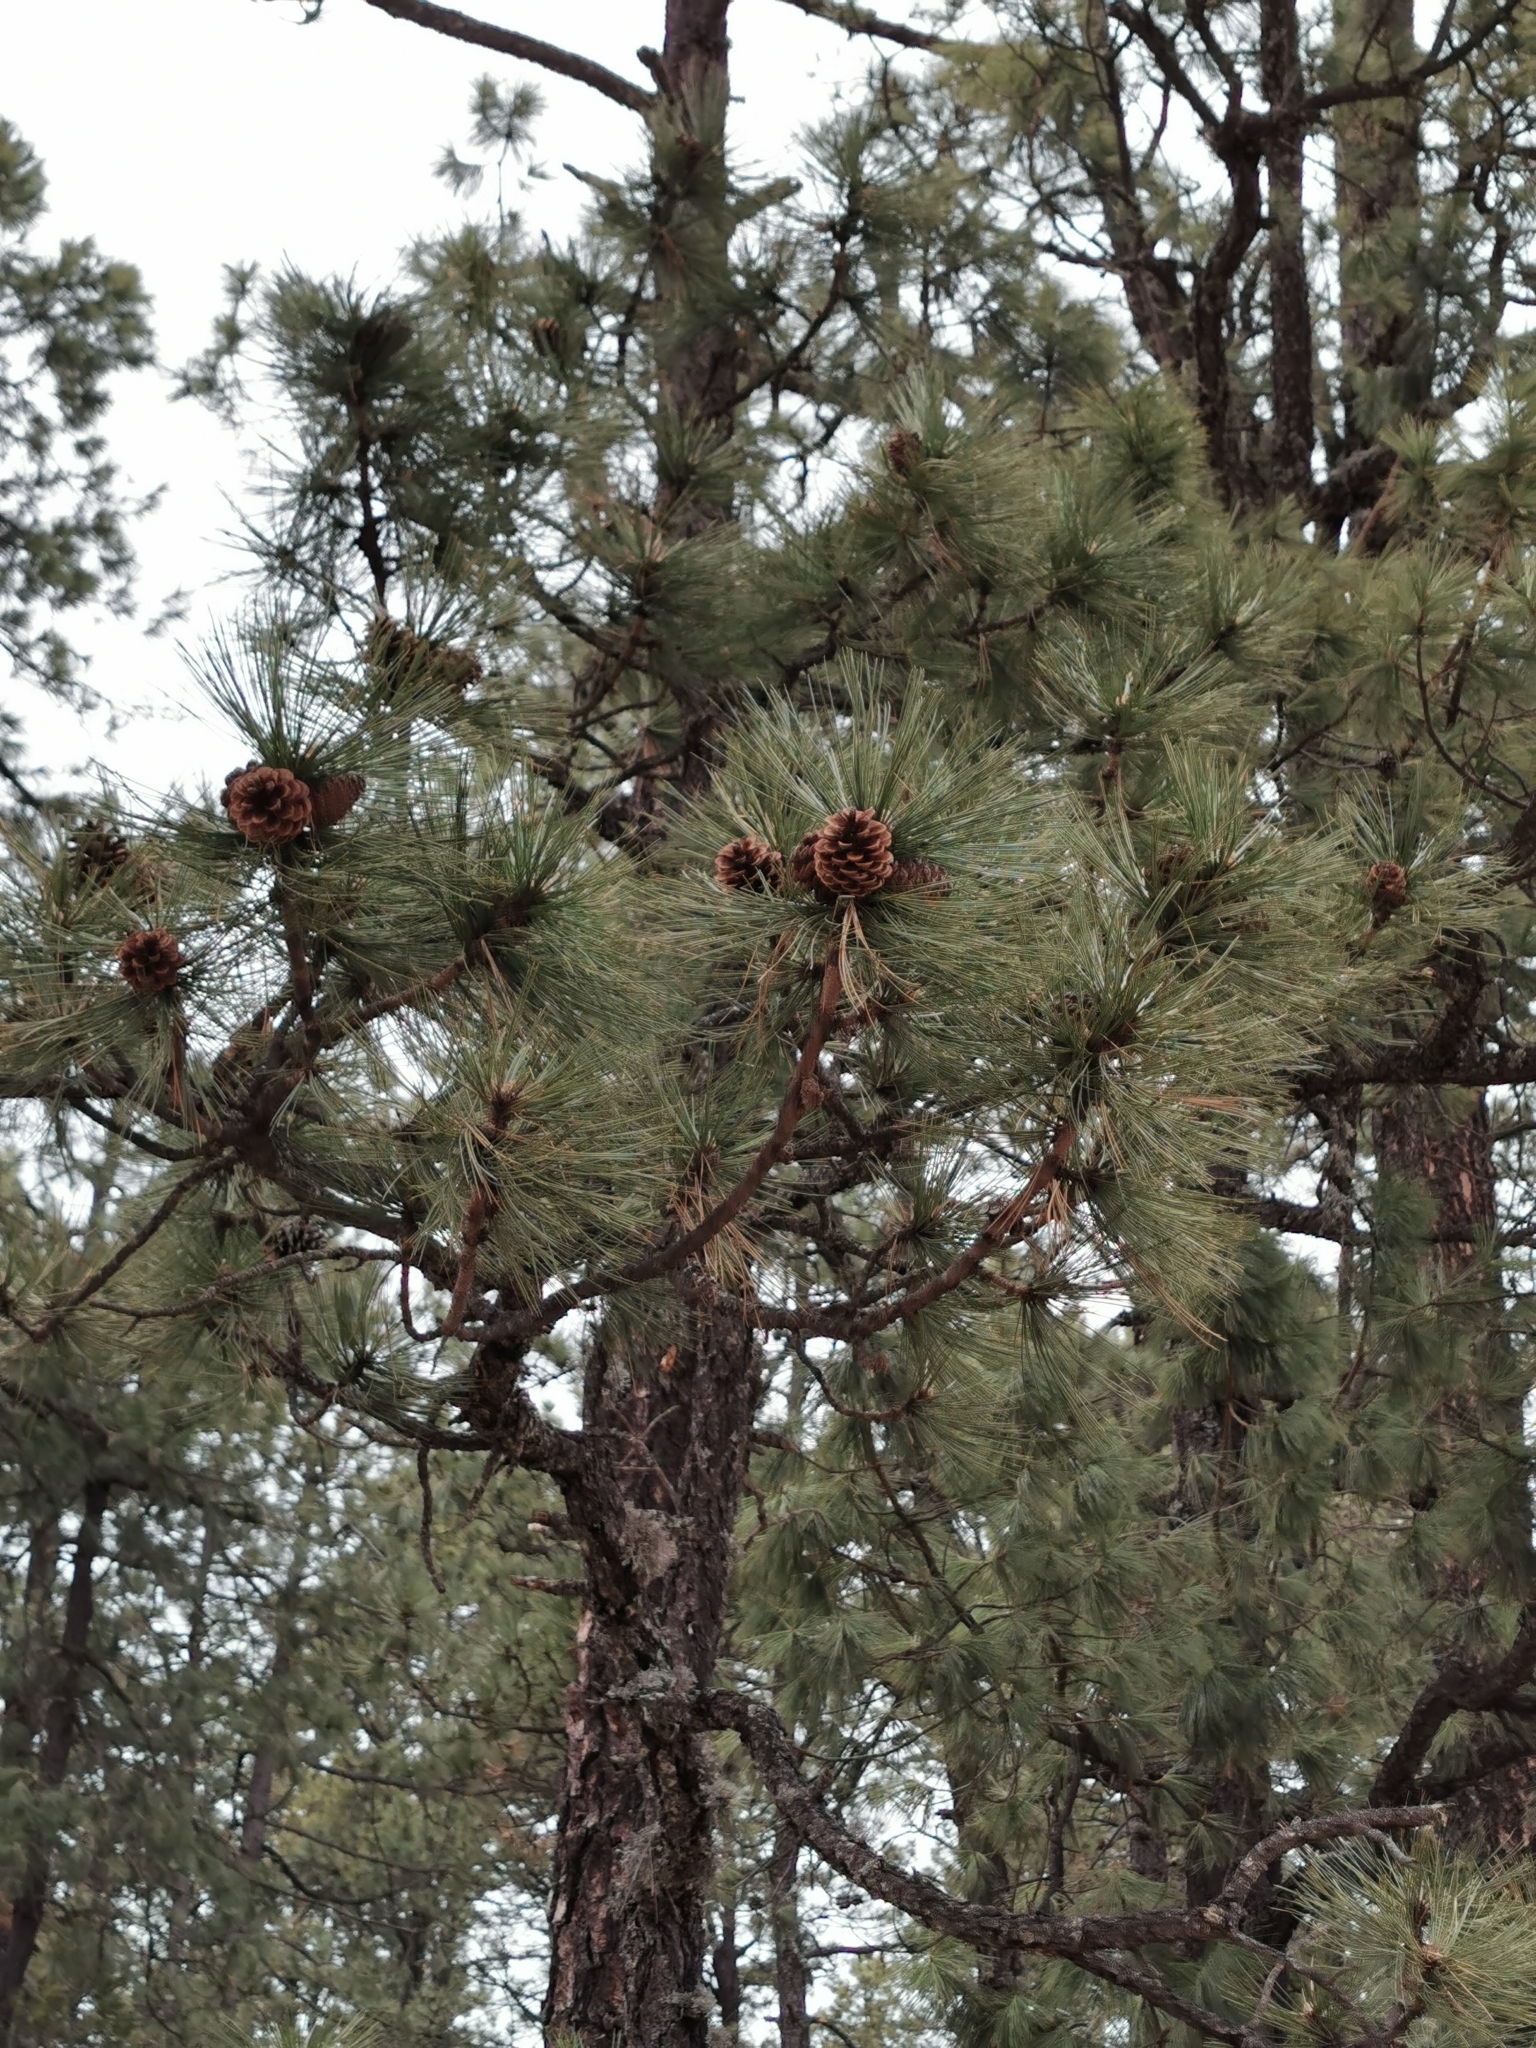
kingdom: Plantae
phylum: Tracheophyta
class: Pinopsida
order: Pinales
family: Pinaceae
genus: Pinus
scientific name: Pinus arizonica
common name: Arizona pine
